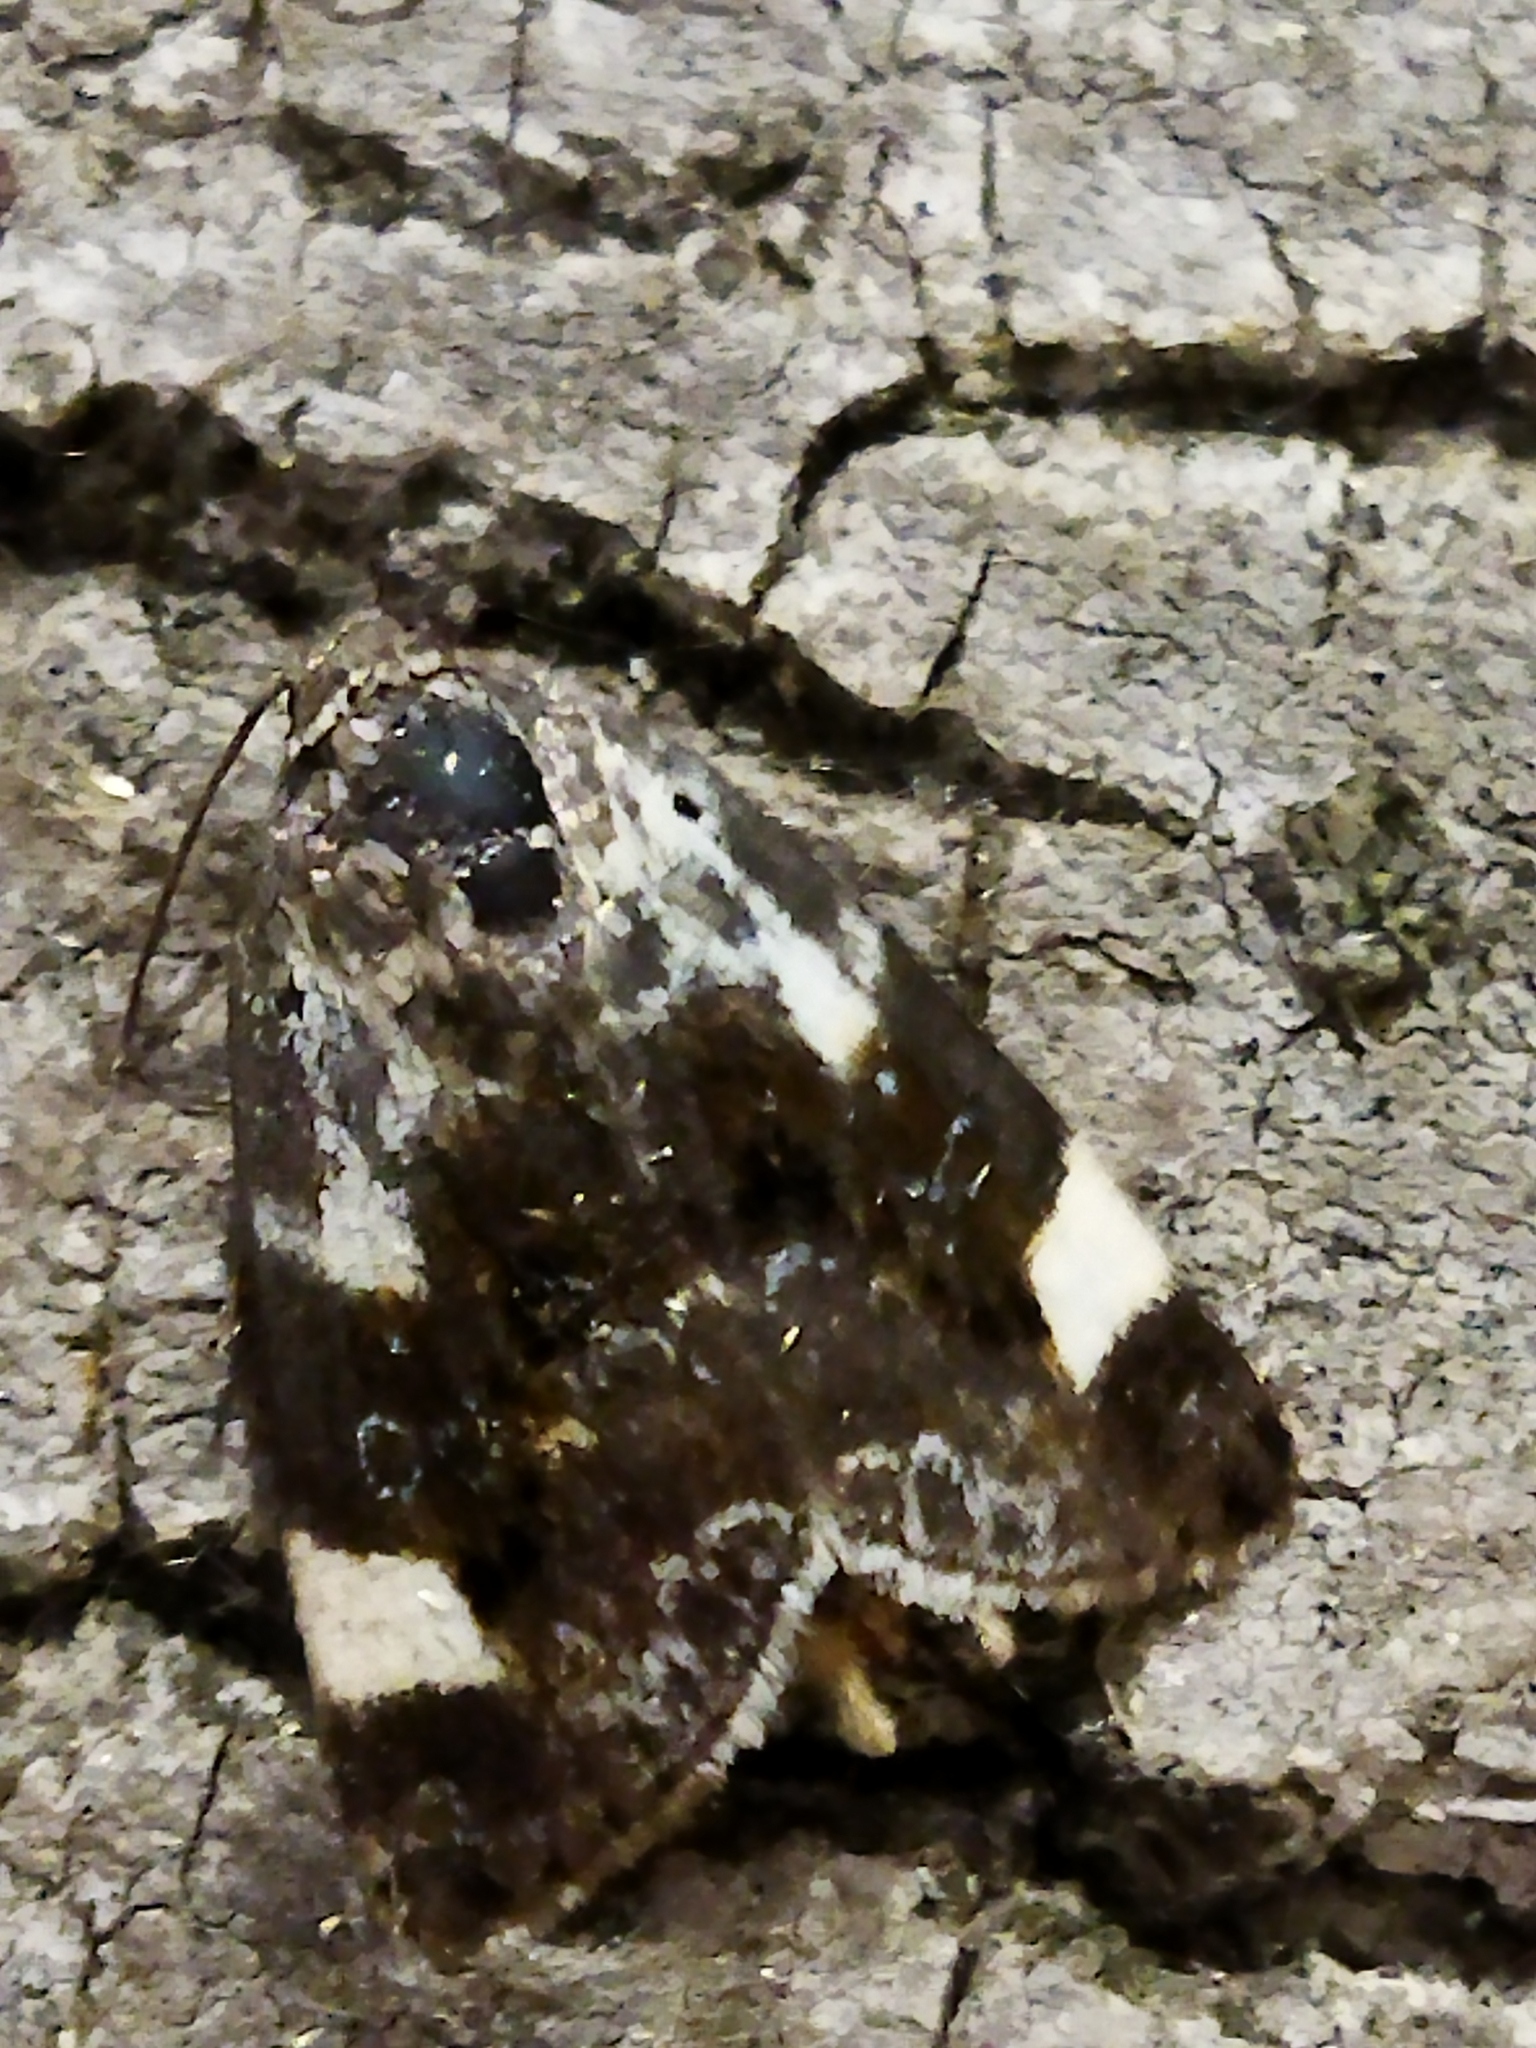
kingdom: Animalia
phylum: Arthropoda
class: Insecta
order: Lepidoptera
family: Noctuidae
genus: Acontia
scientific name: Acontia lucida
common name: Pale shoulder
